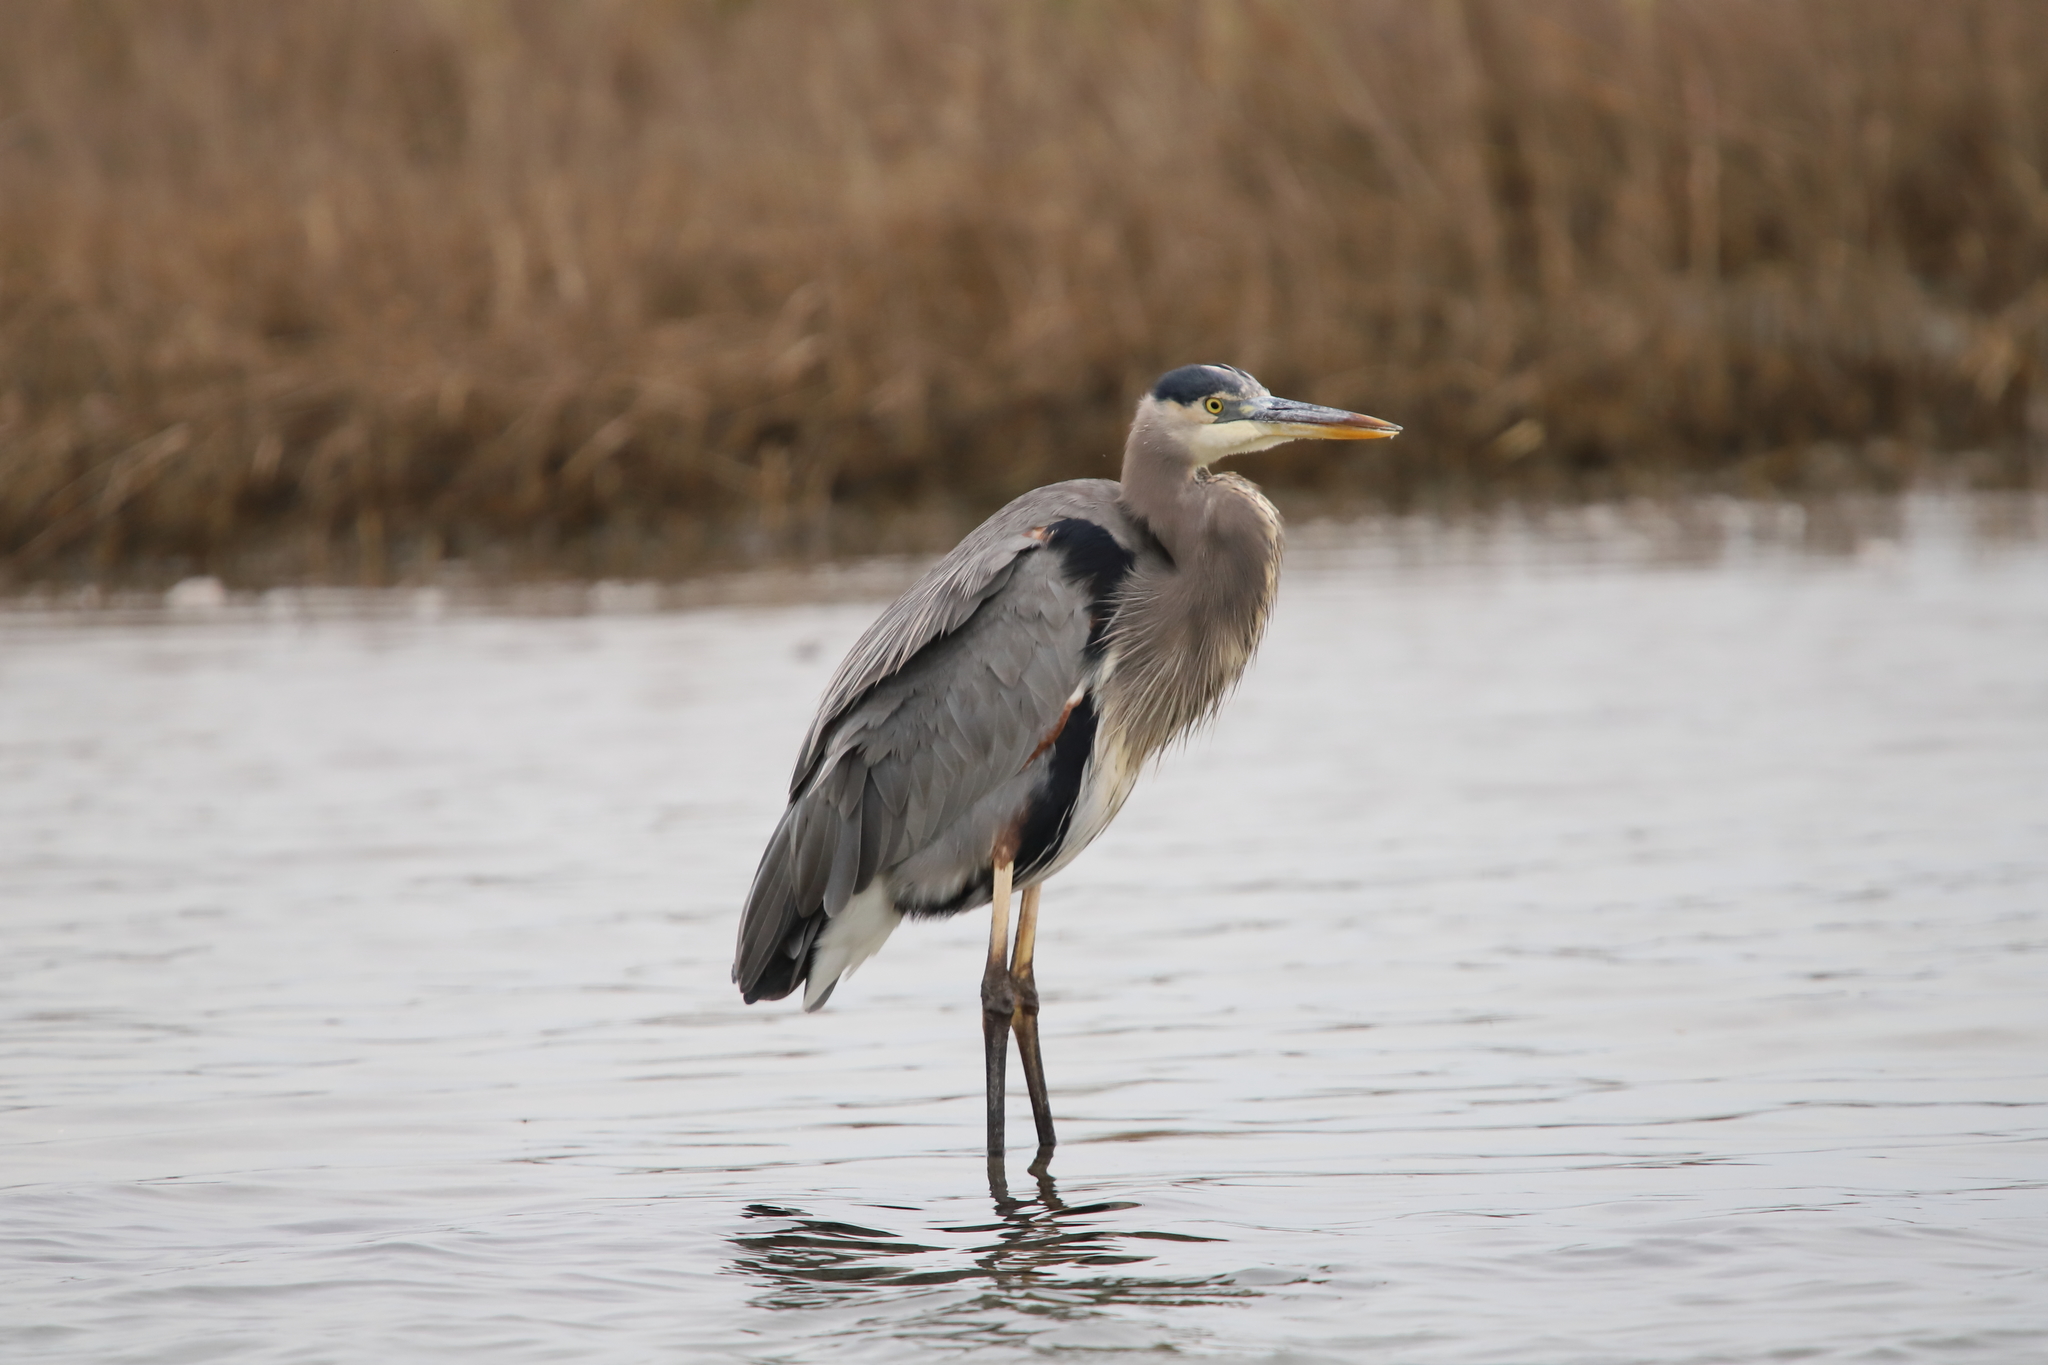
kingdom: Animalia
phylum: Chordata
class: Aves
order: Pelecaniformes
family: Ardeidae
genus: Ardea
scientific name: Ardea herodias
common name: Great blue heron
